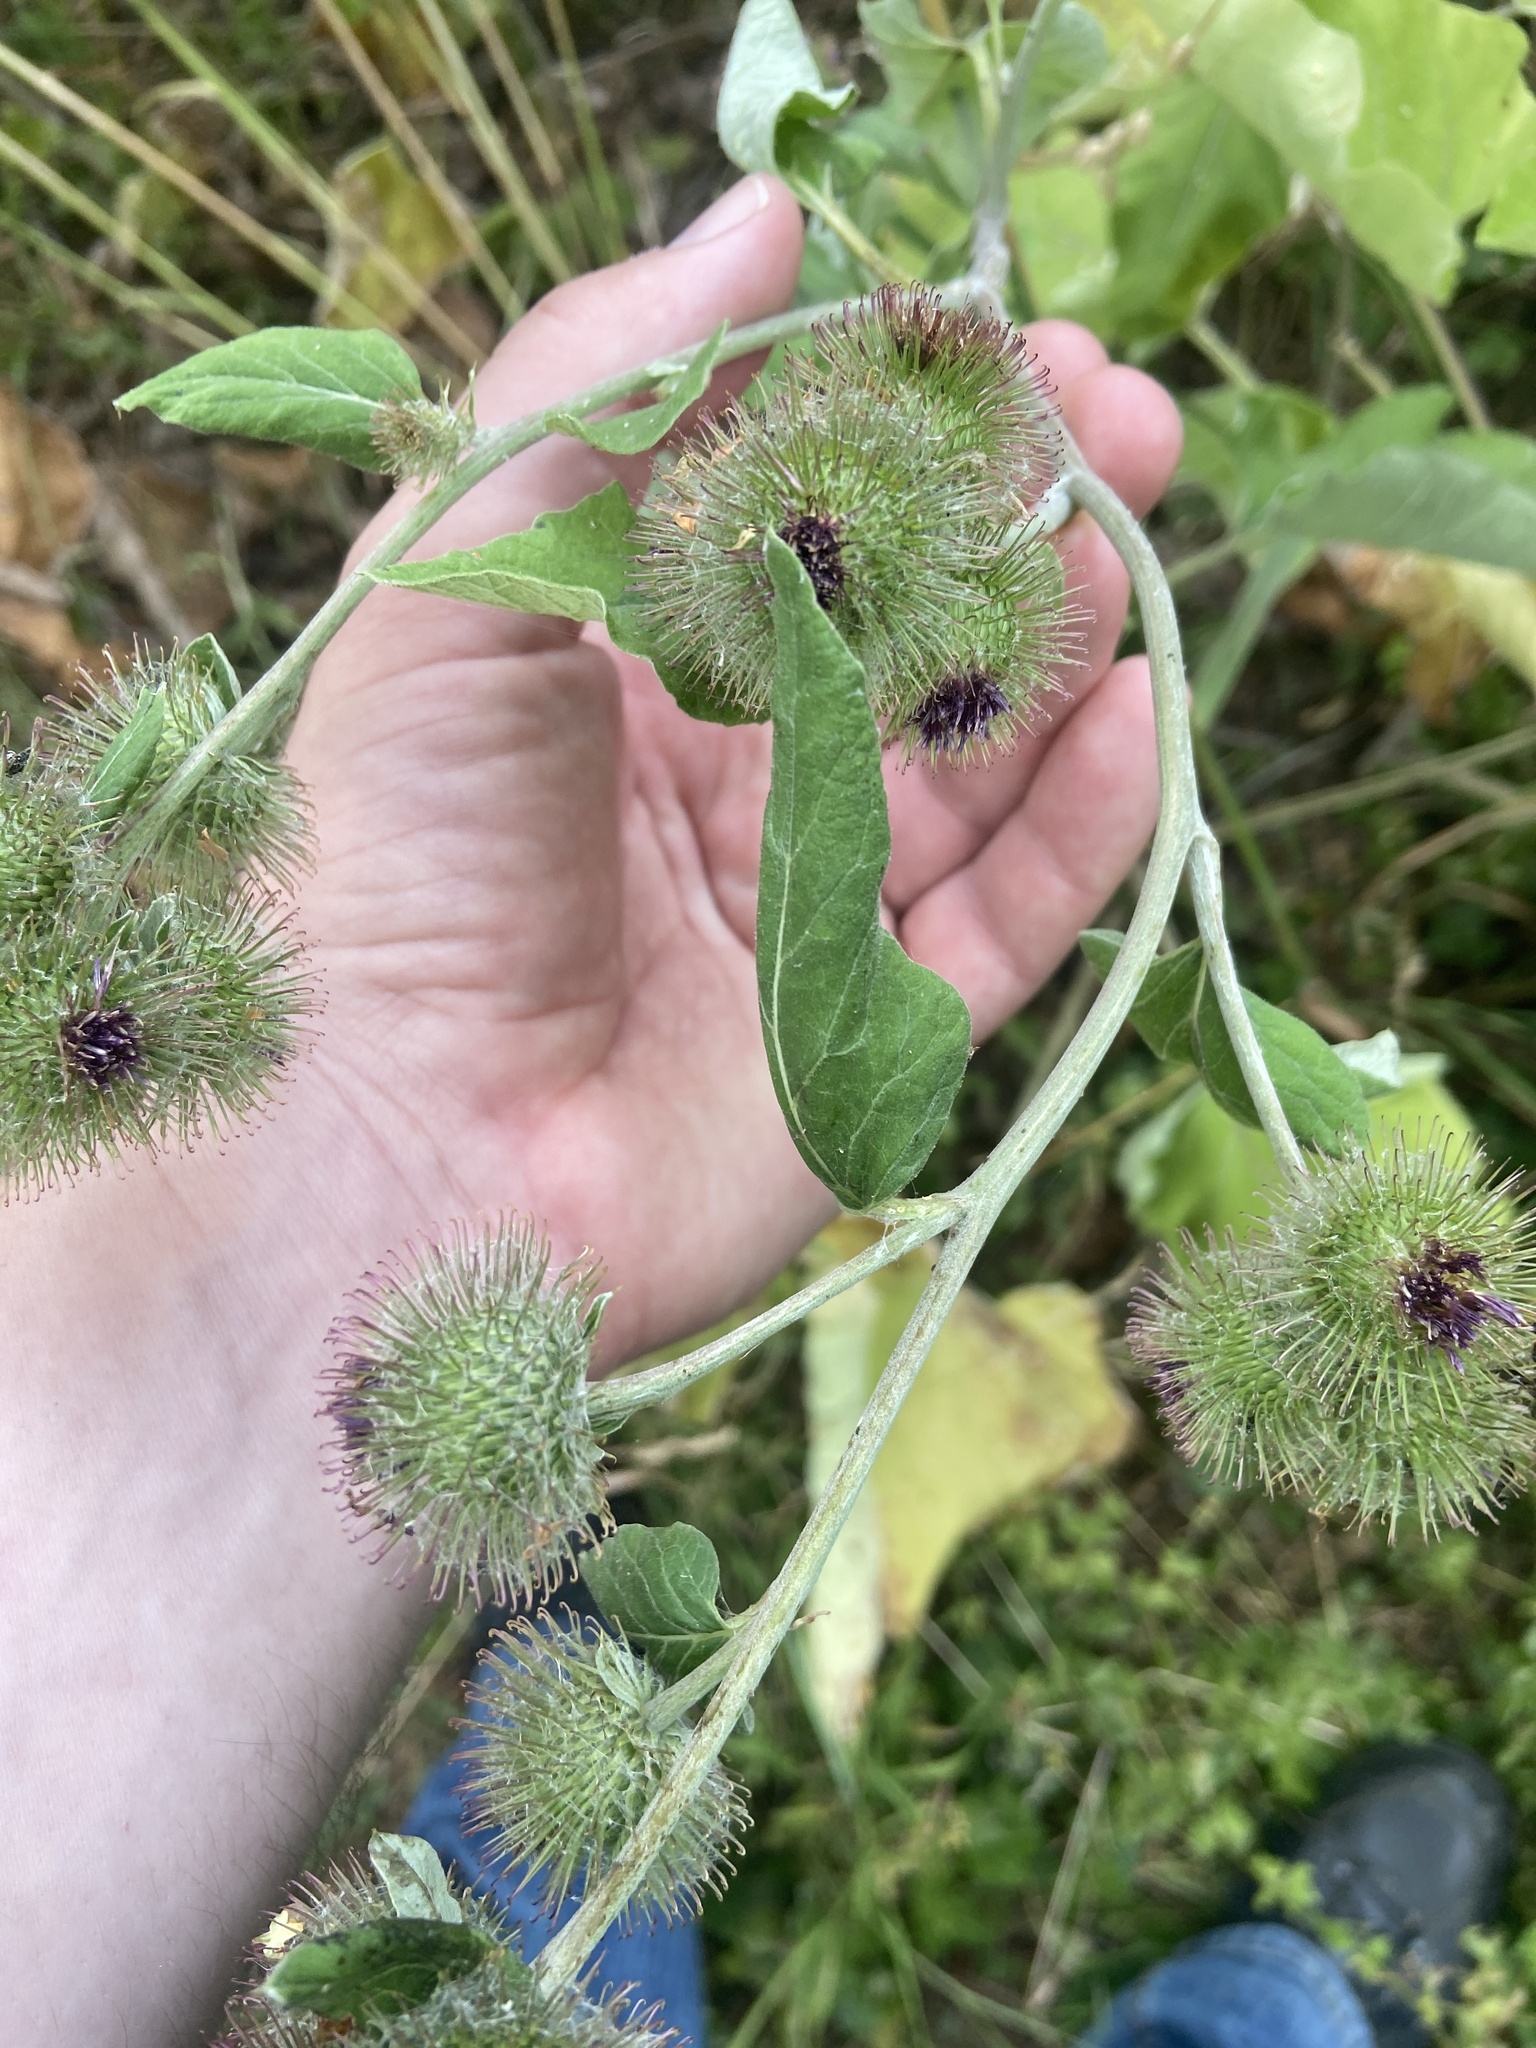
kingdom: Plantae
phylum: Tracheophyta
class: Magnoliopsida
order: Asterales
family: Asteraceae
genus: Arctium
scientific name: Arctium lappa
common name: Greater burdock
